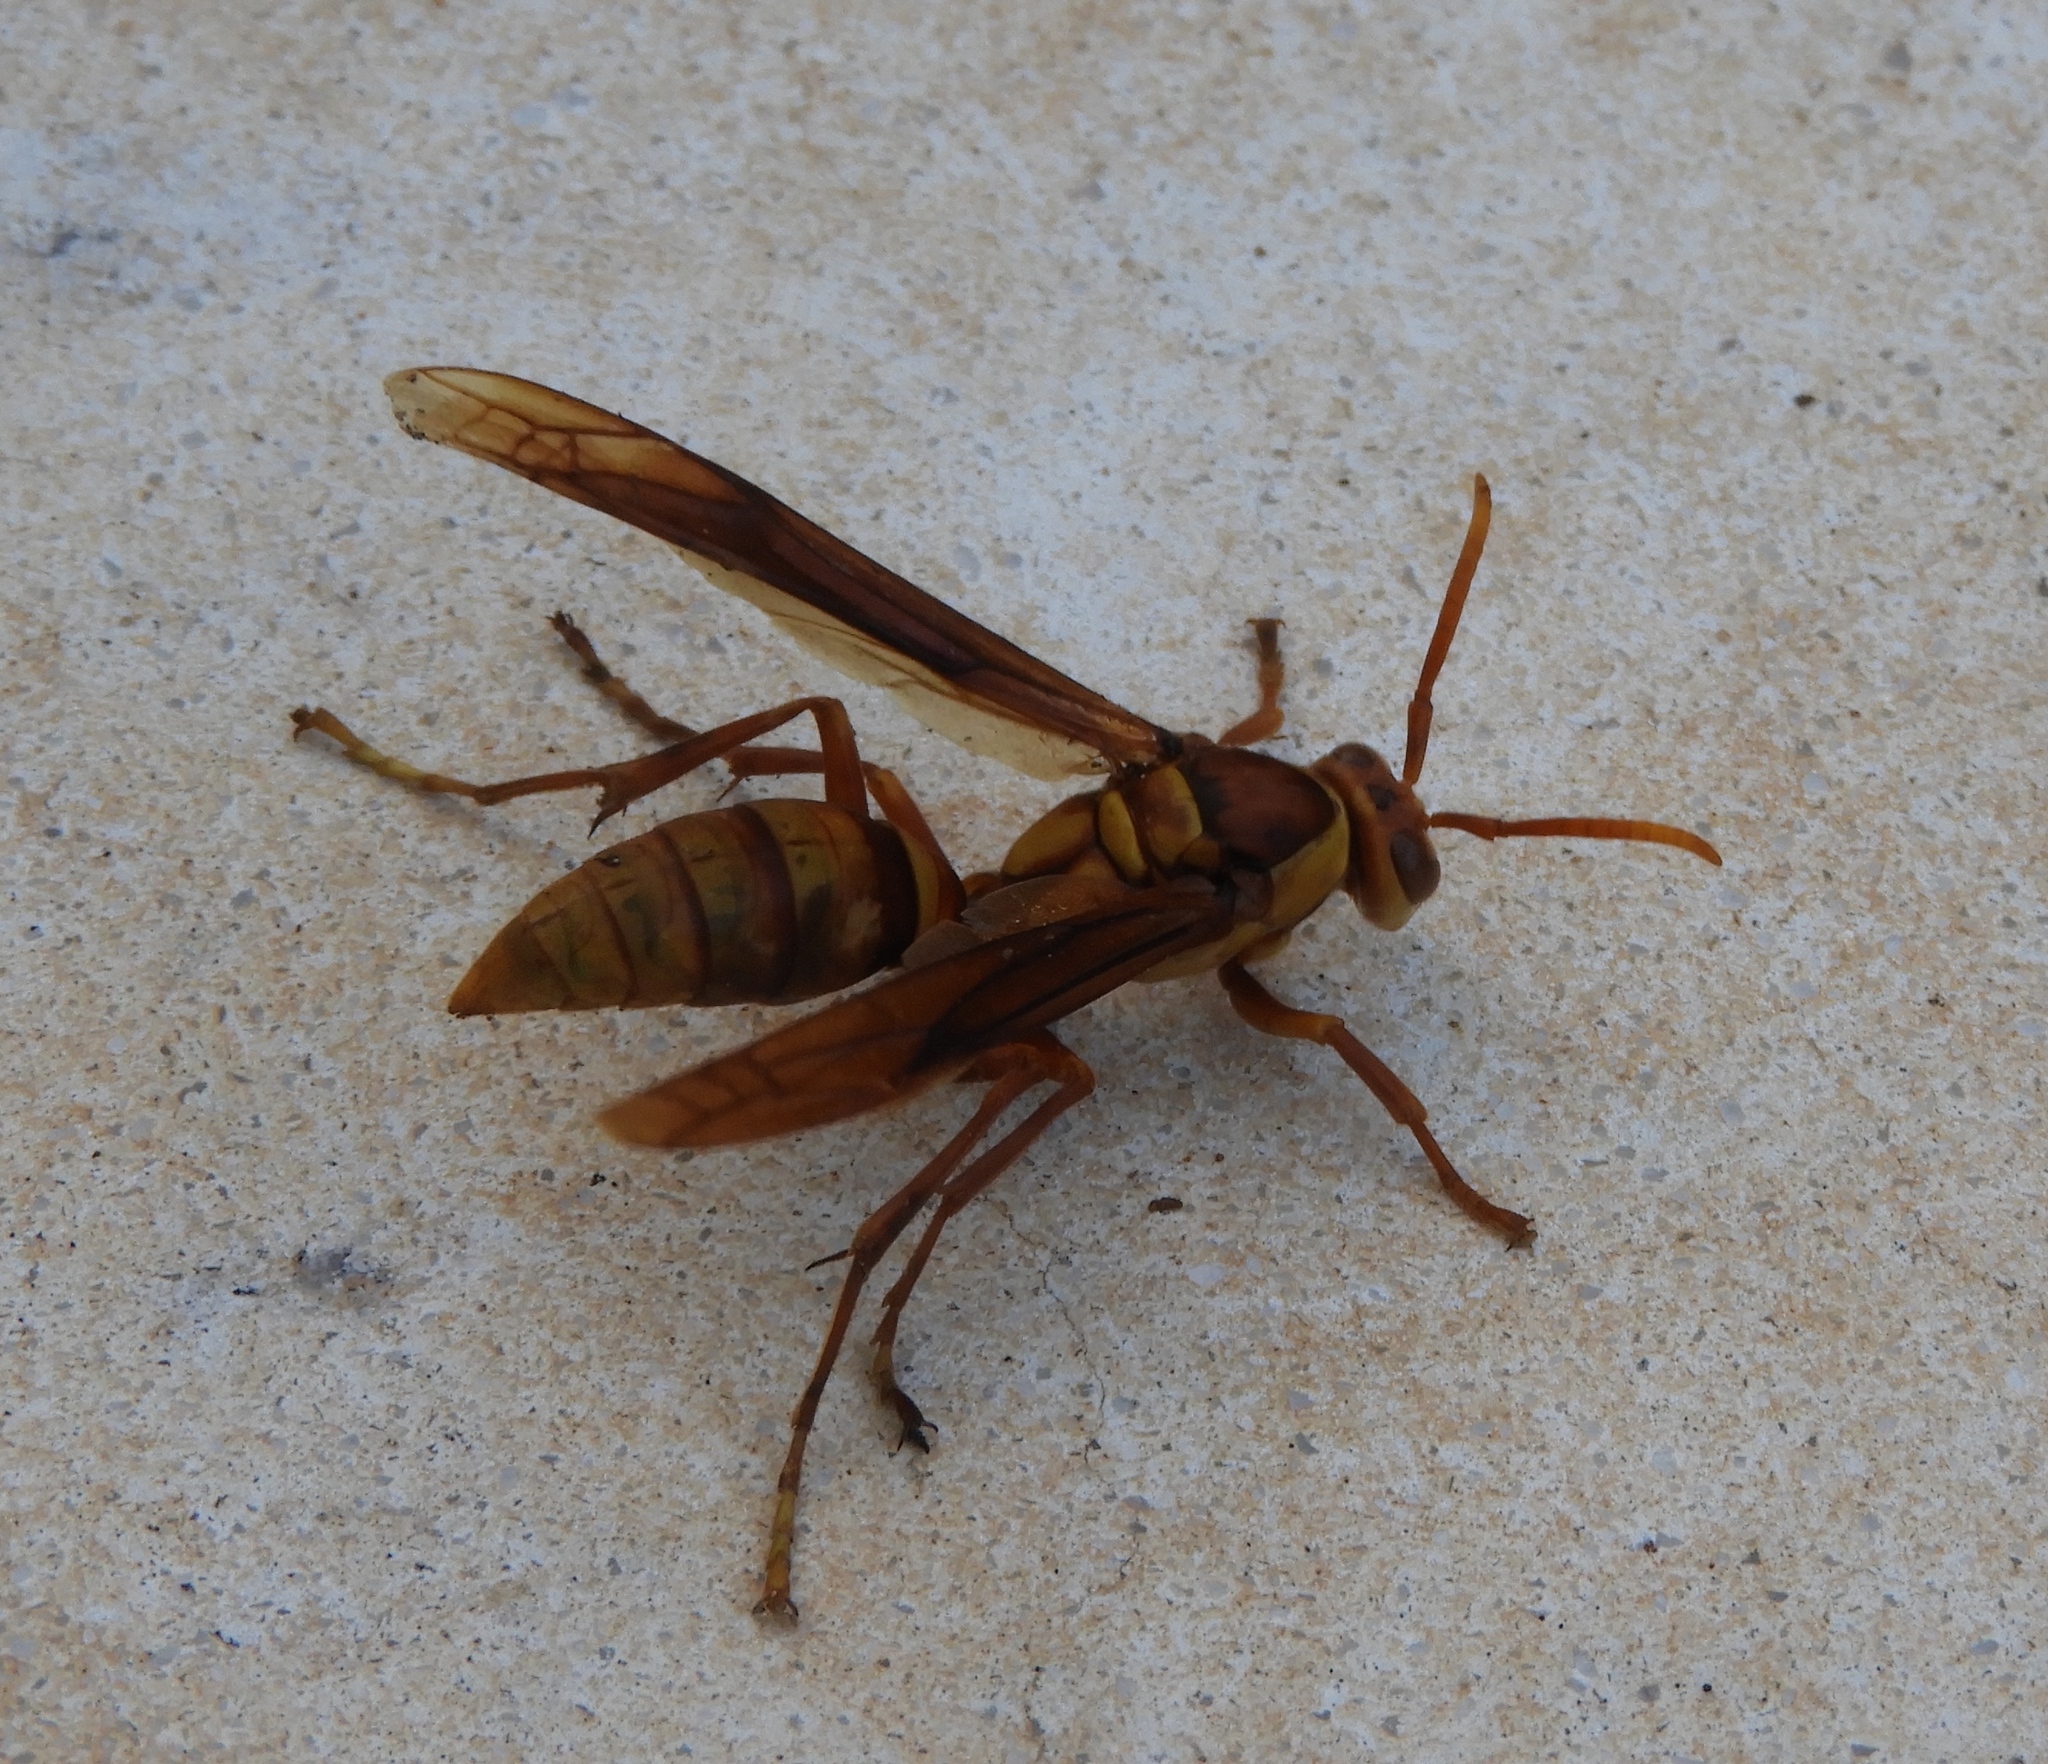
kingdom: Animalia
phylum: Arthropoda
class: Insecta
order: Hymenoptera
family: Eumenidae
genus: Polistes
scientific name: Polistes carnifex
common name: Paper wasp
